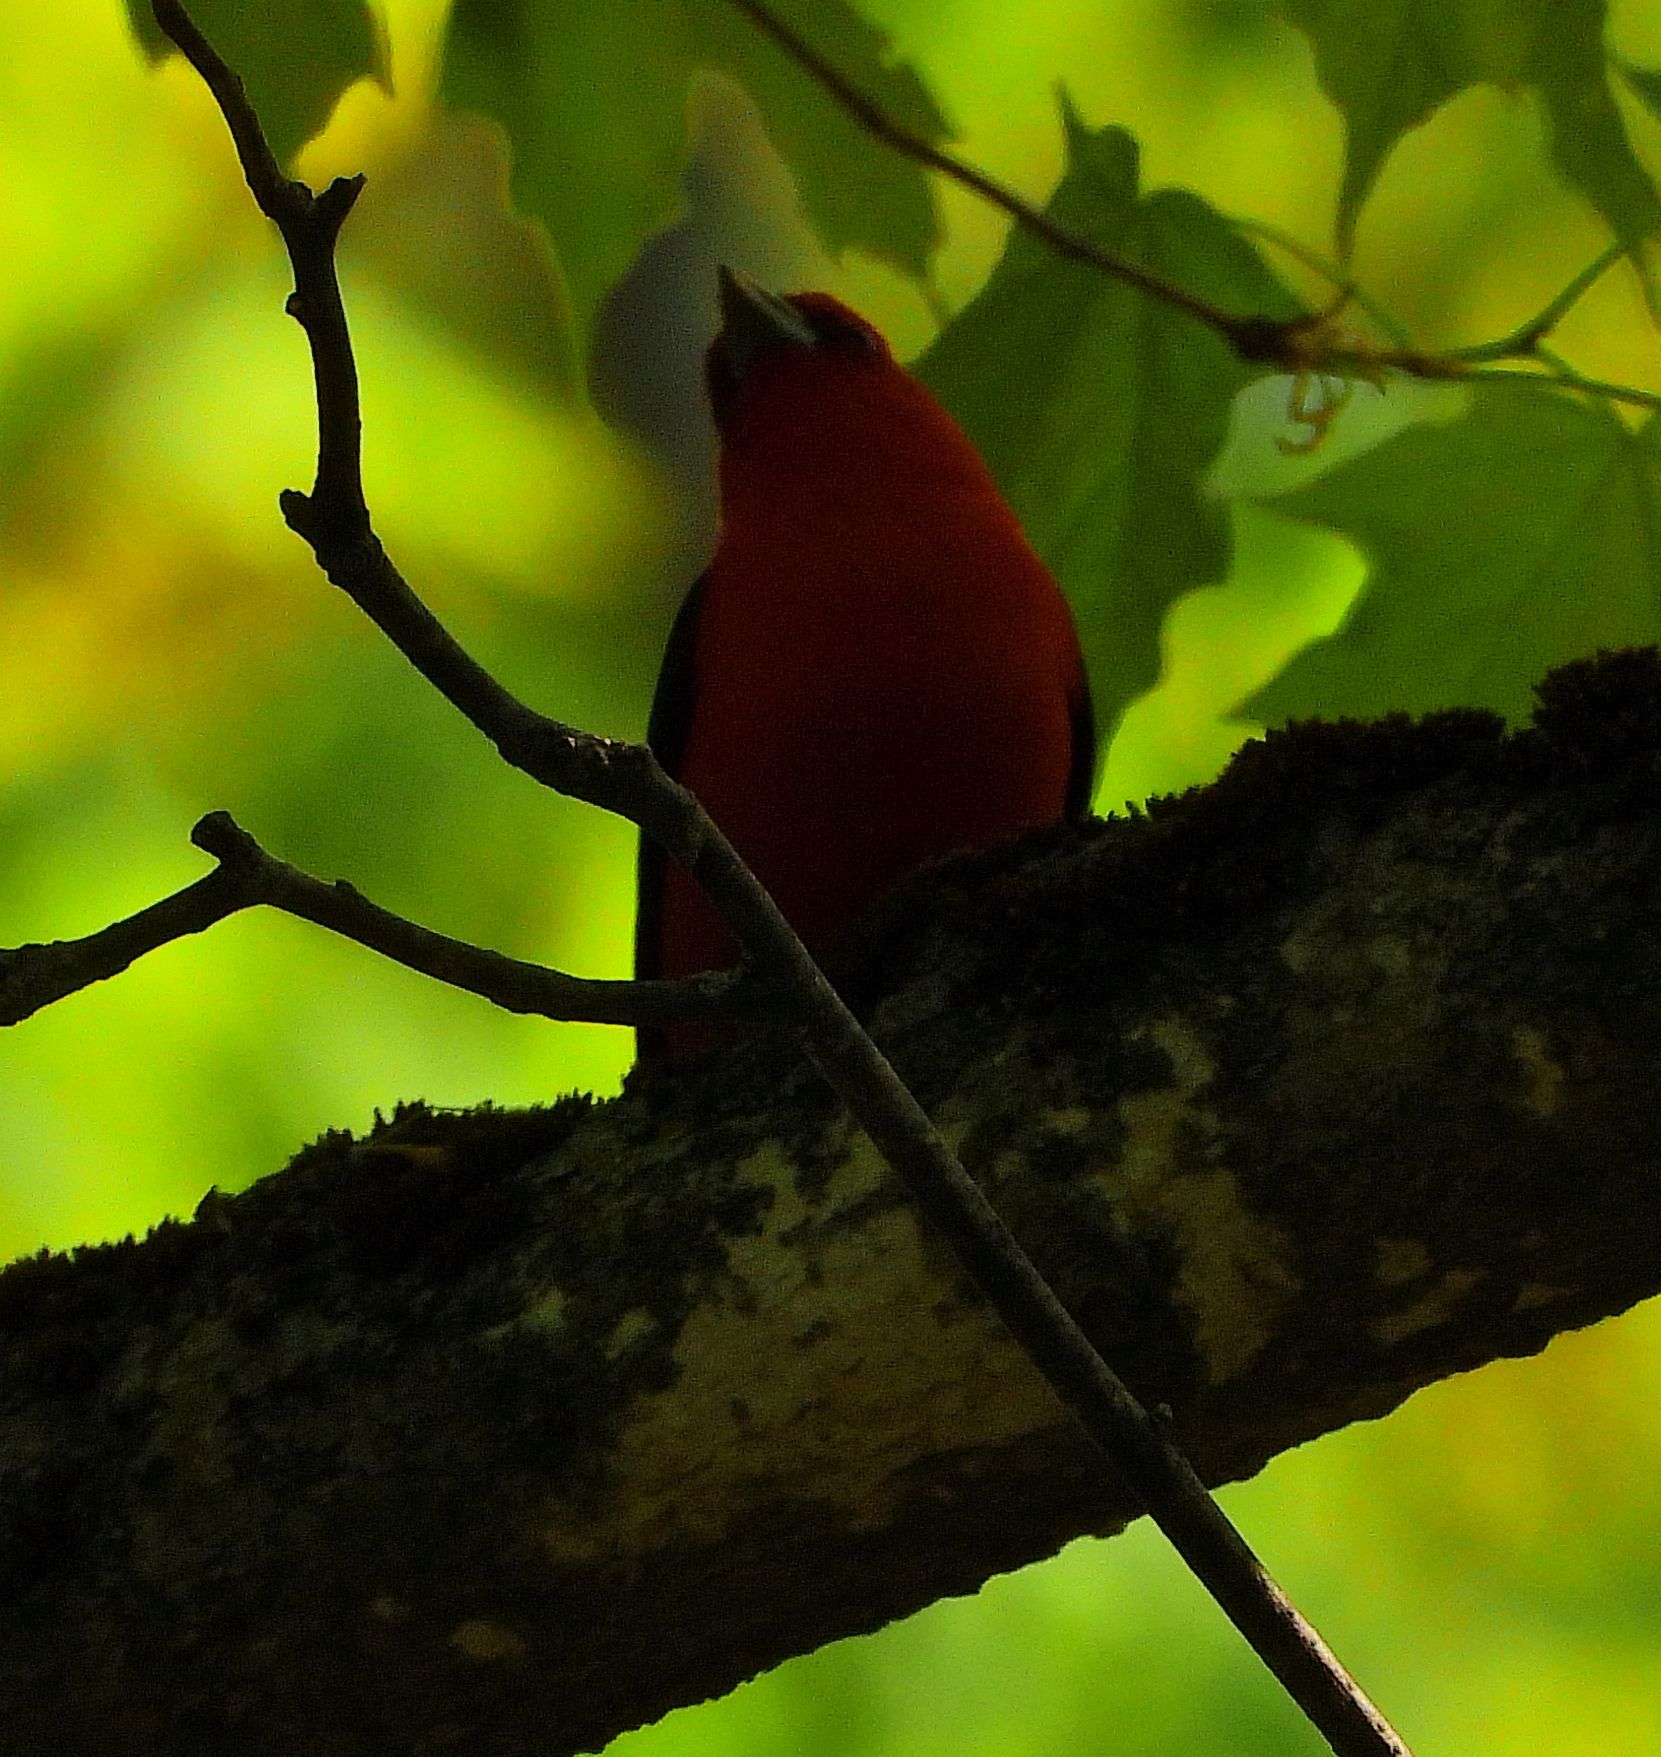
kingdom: Animalia
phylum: Chordata
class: Aves
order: Passeriformes
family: Cardinalidae
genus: Piranga
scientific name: Piranga olivacea
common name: Scarlet tanager
